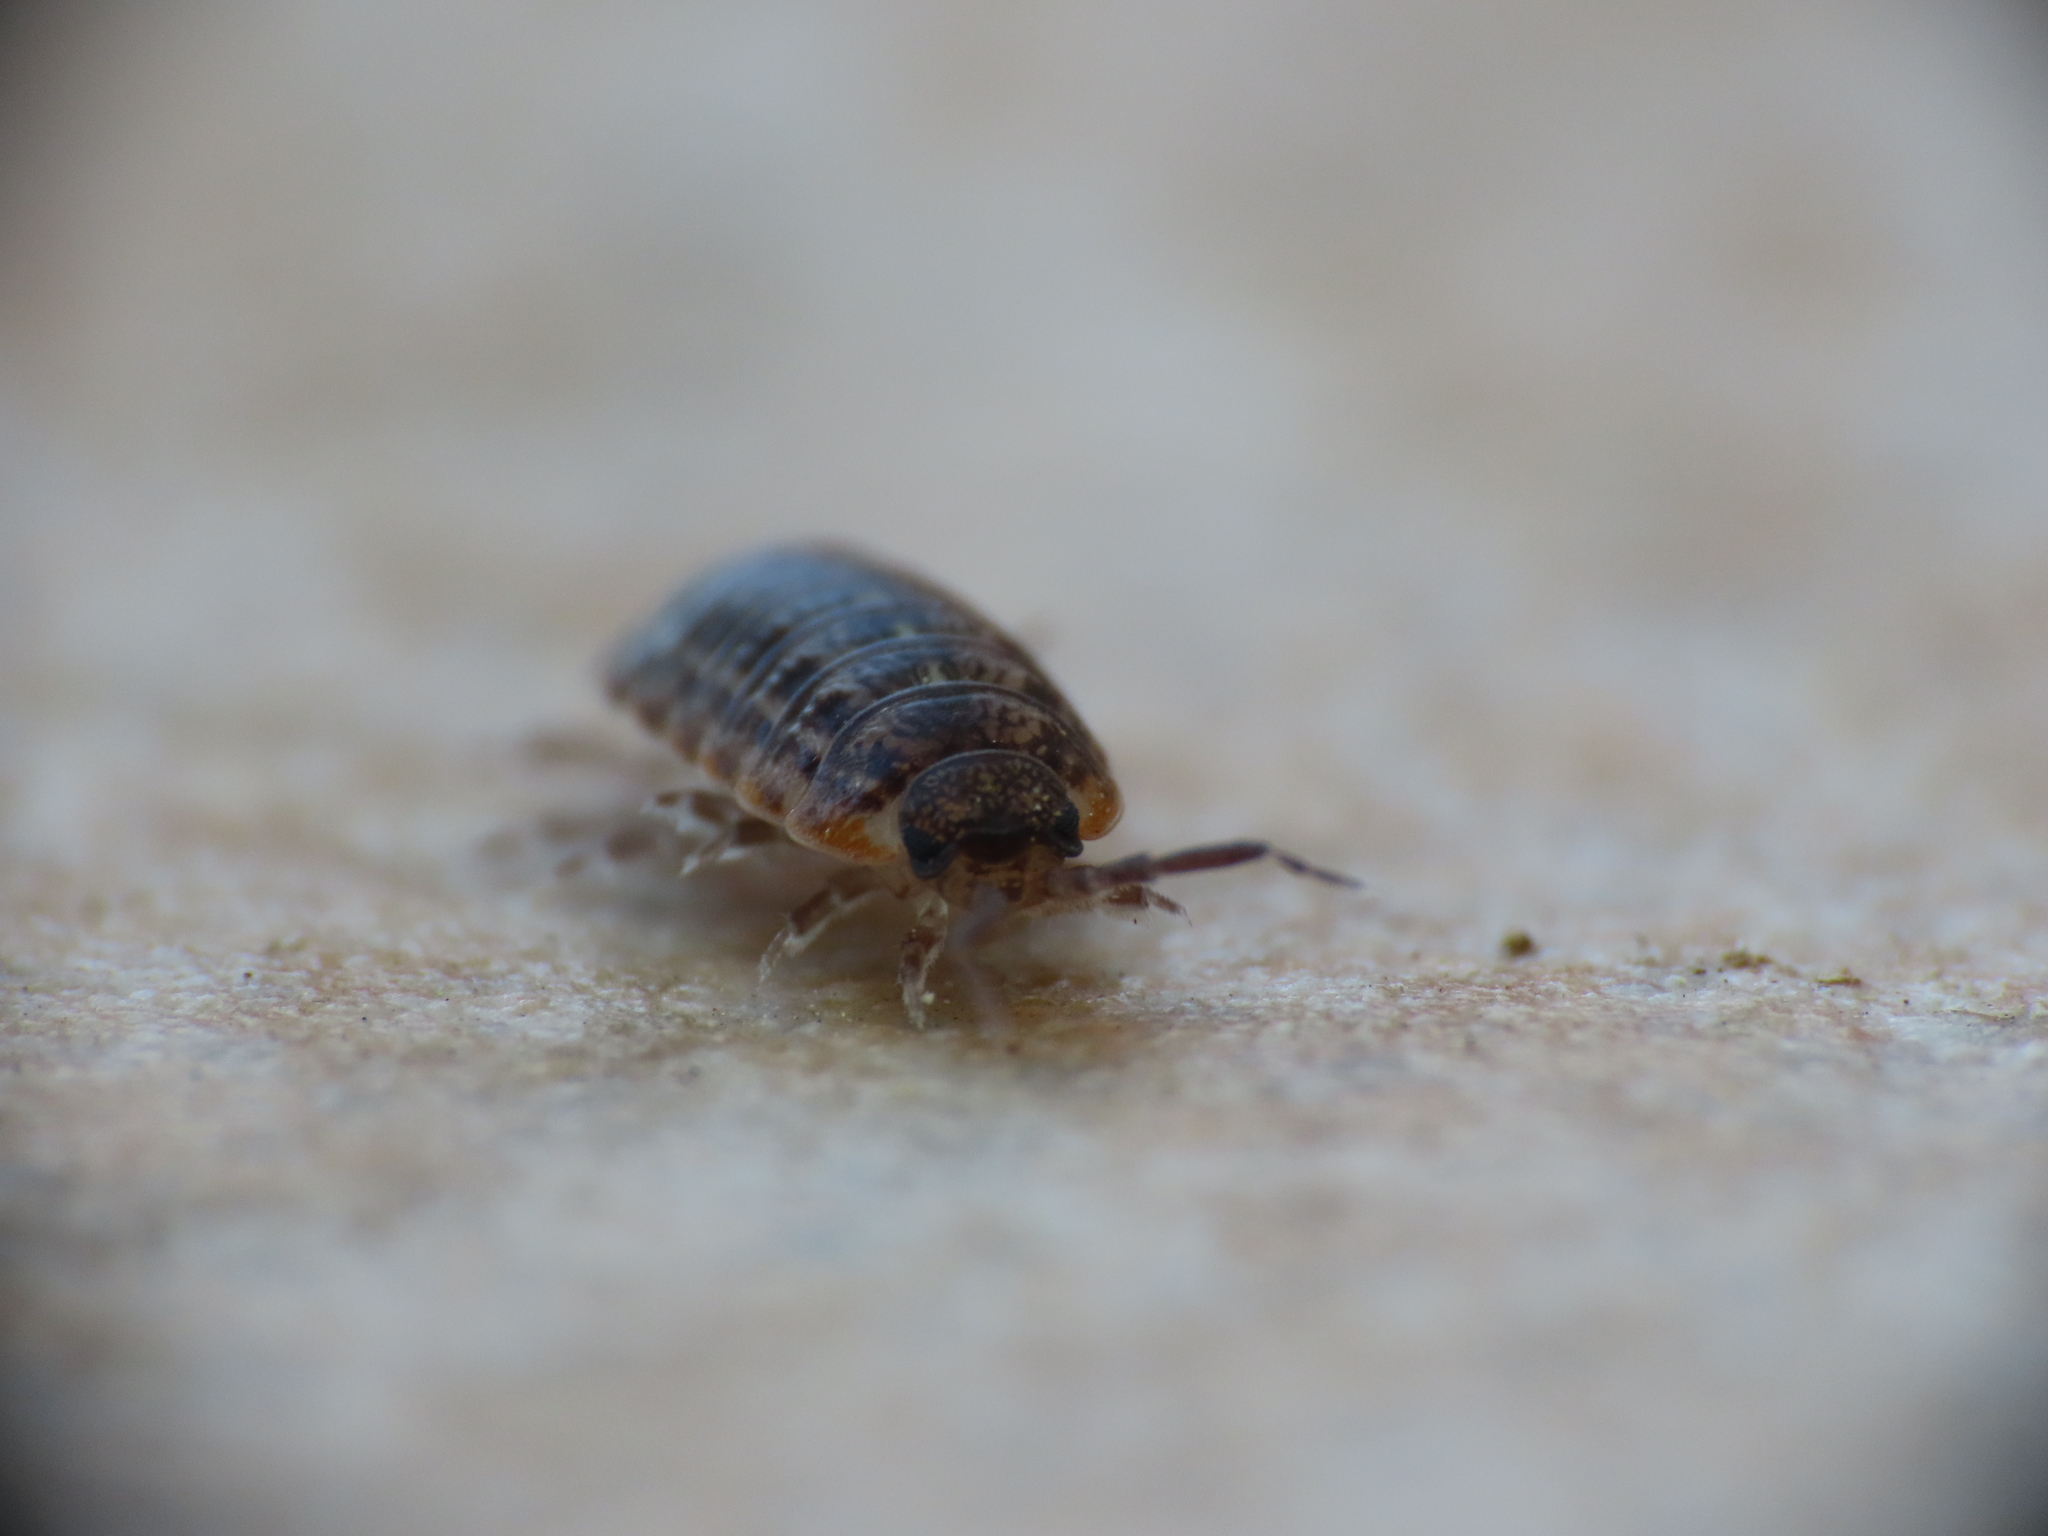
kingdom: Animalia
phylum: Arthropoda
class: Malacostraca
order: Isopoda
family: Trachelipodidae
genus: Trachelipus
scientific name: Trachelipus razzautii
